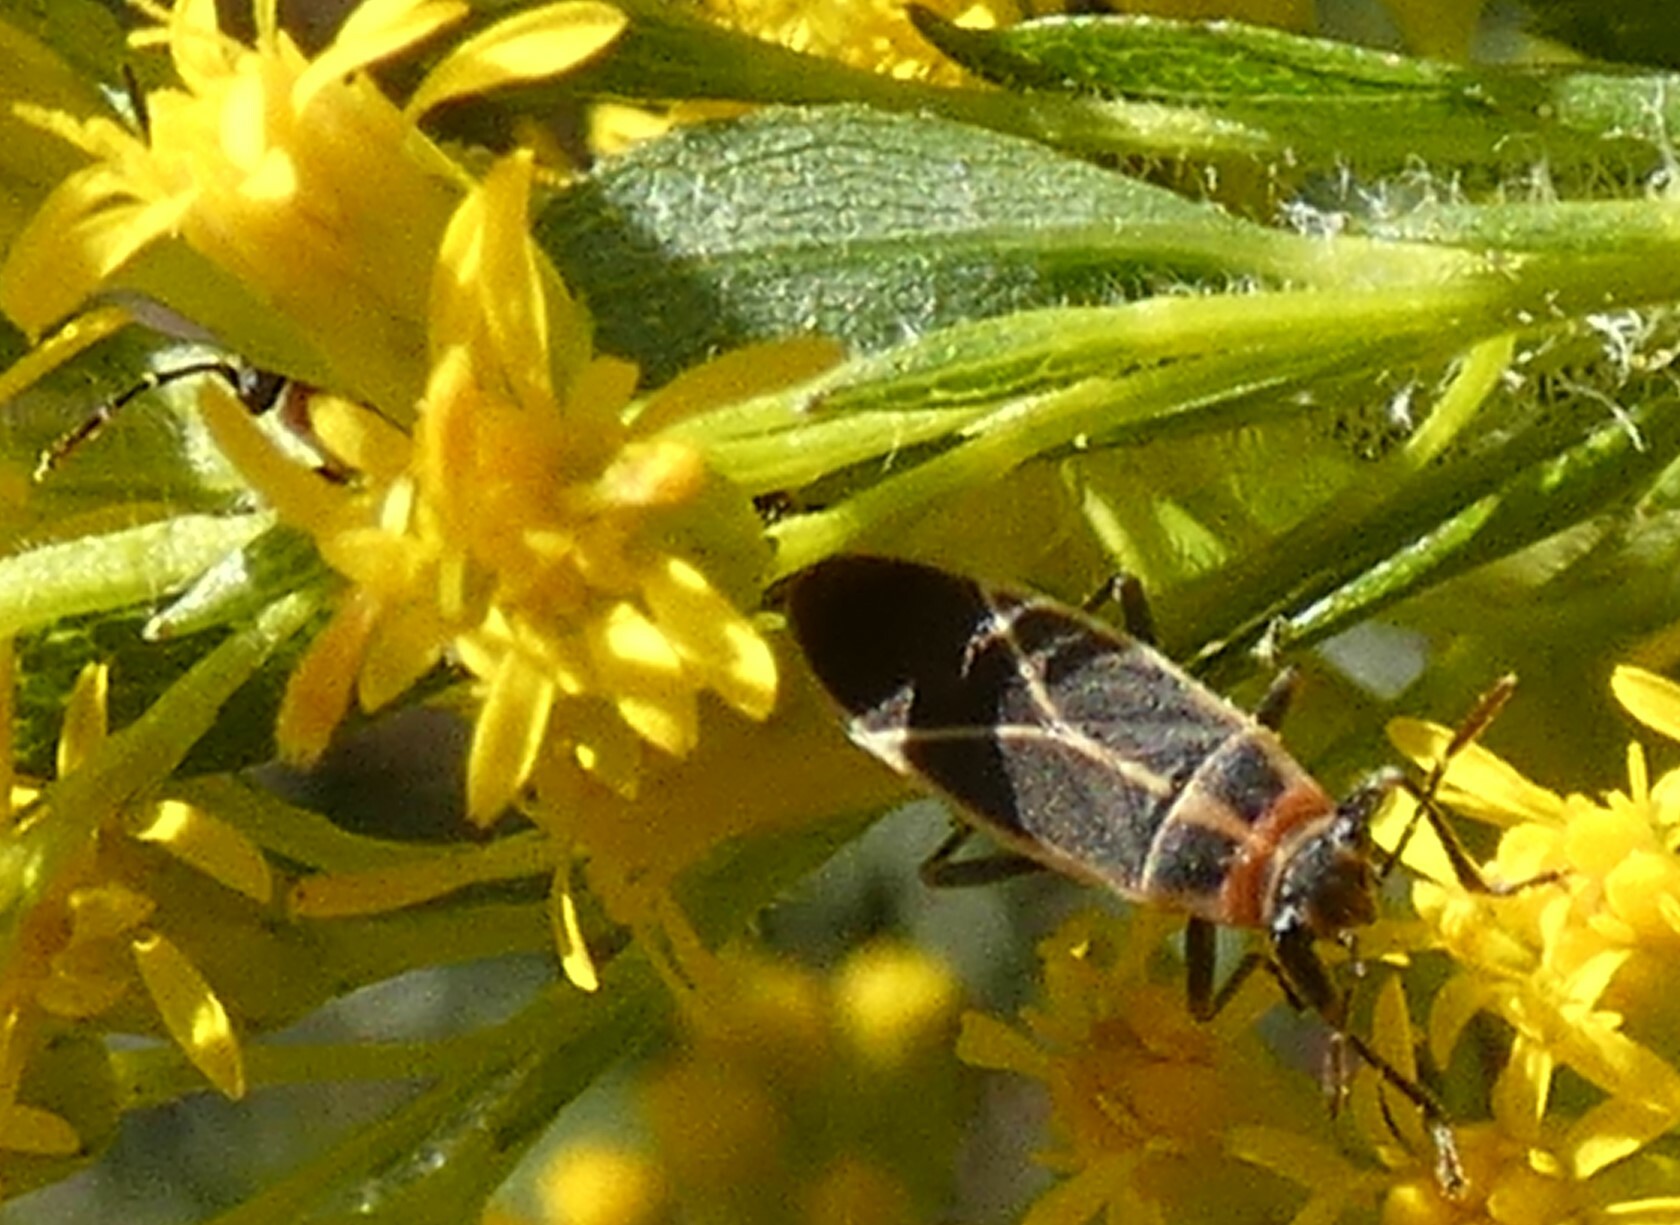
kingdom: Animalia
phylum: Arthropoda
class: Insecta
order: Hemiptera
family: Lygaeidae
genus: Ochrimnus
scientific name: Ochrimnus mimulus
